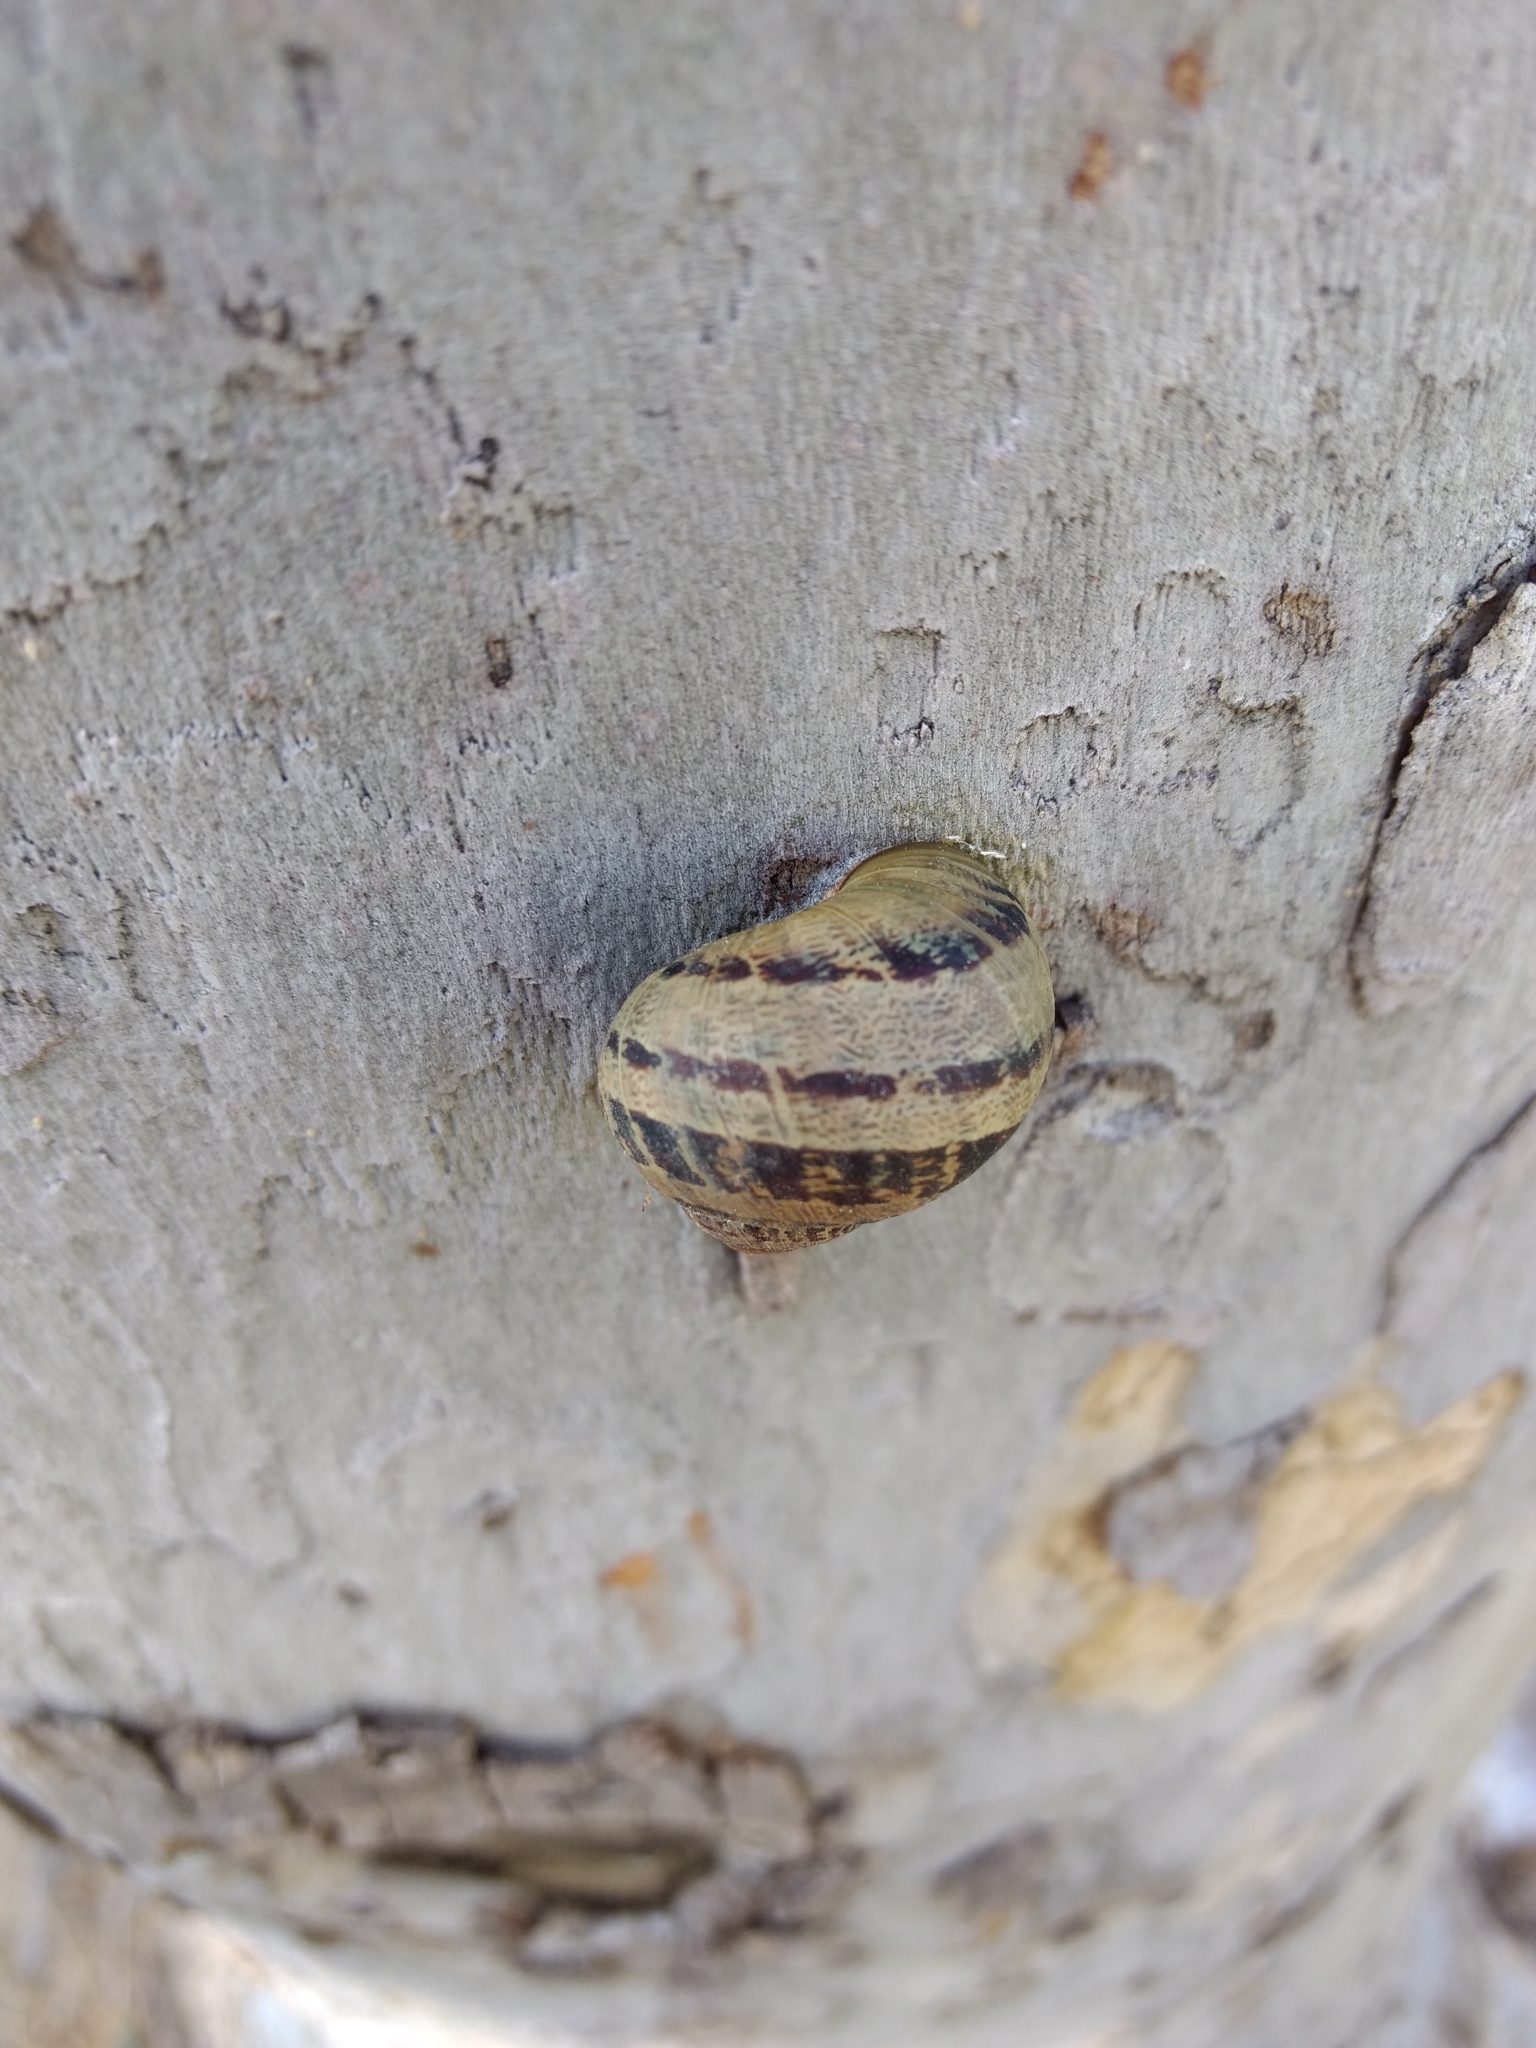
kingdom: Animalia
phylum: Mollusca
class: Gastropoda
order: Stylommatophora
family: Helicidae
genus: Cornu
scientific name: Cornu aspersum
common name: Brown garden snail
